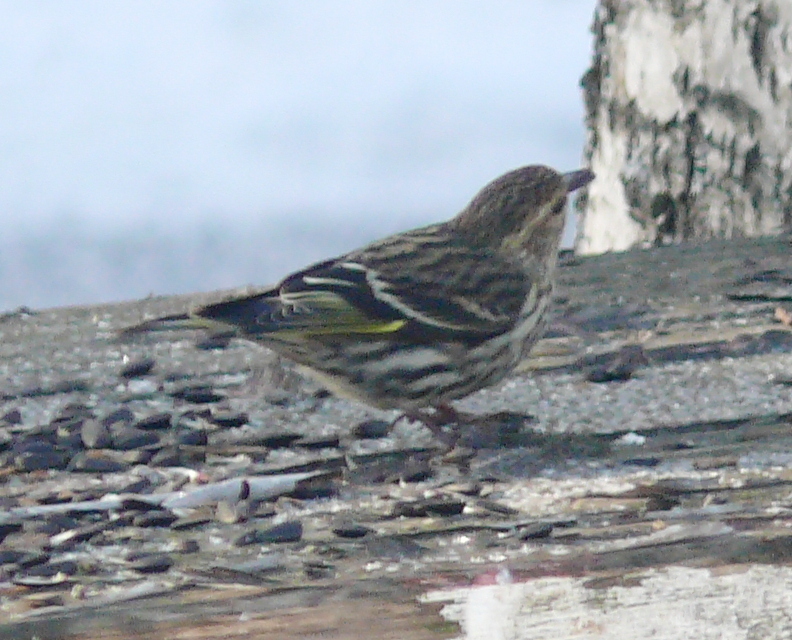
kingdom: Animalia
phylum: Chordata
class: Aves
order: Passeriformes
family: Fringillidae
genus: Spinus
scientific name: Spinus pinus
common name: Pine siskin
